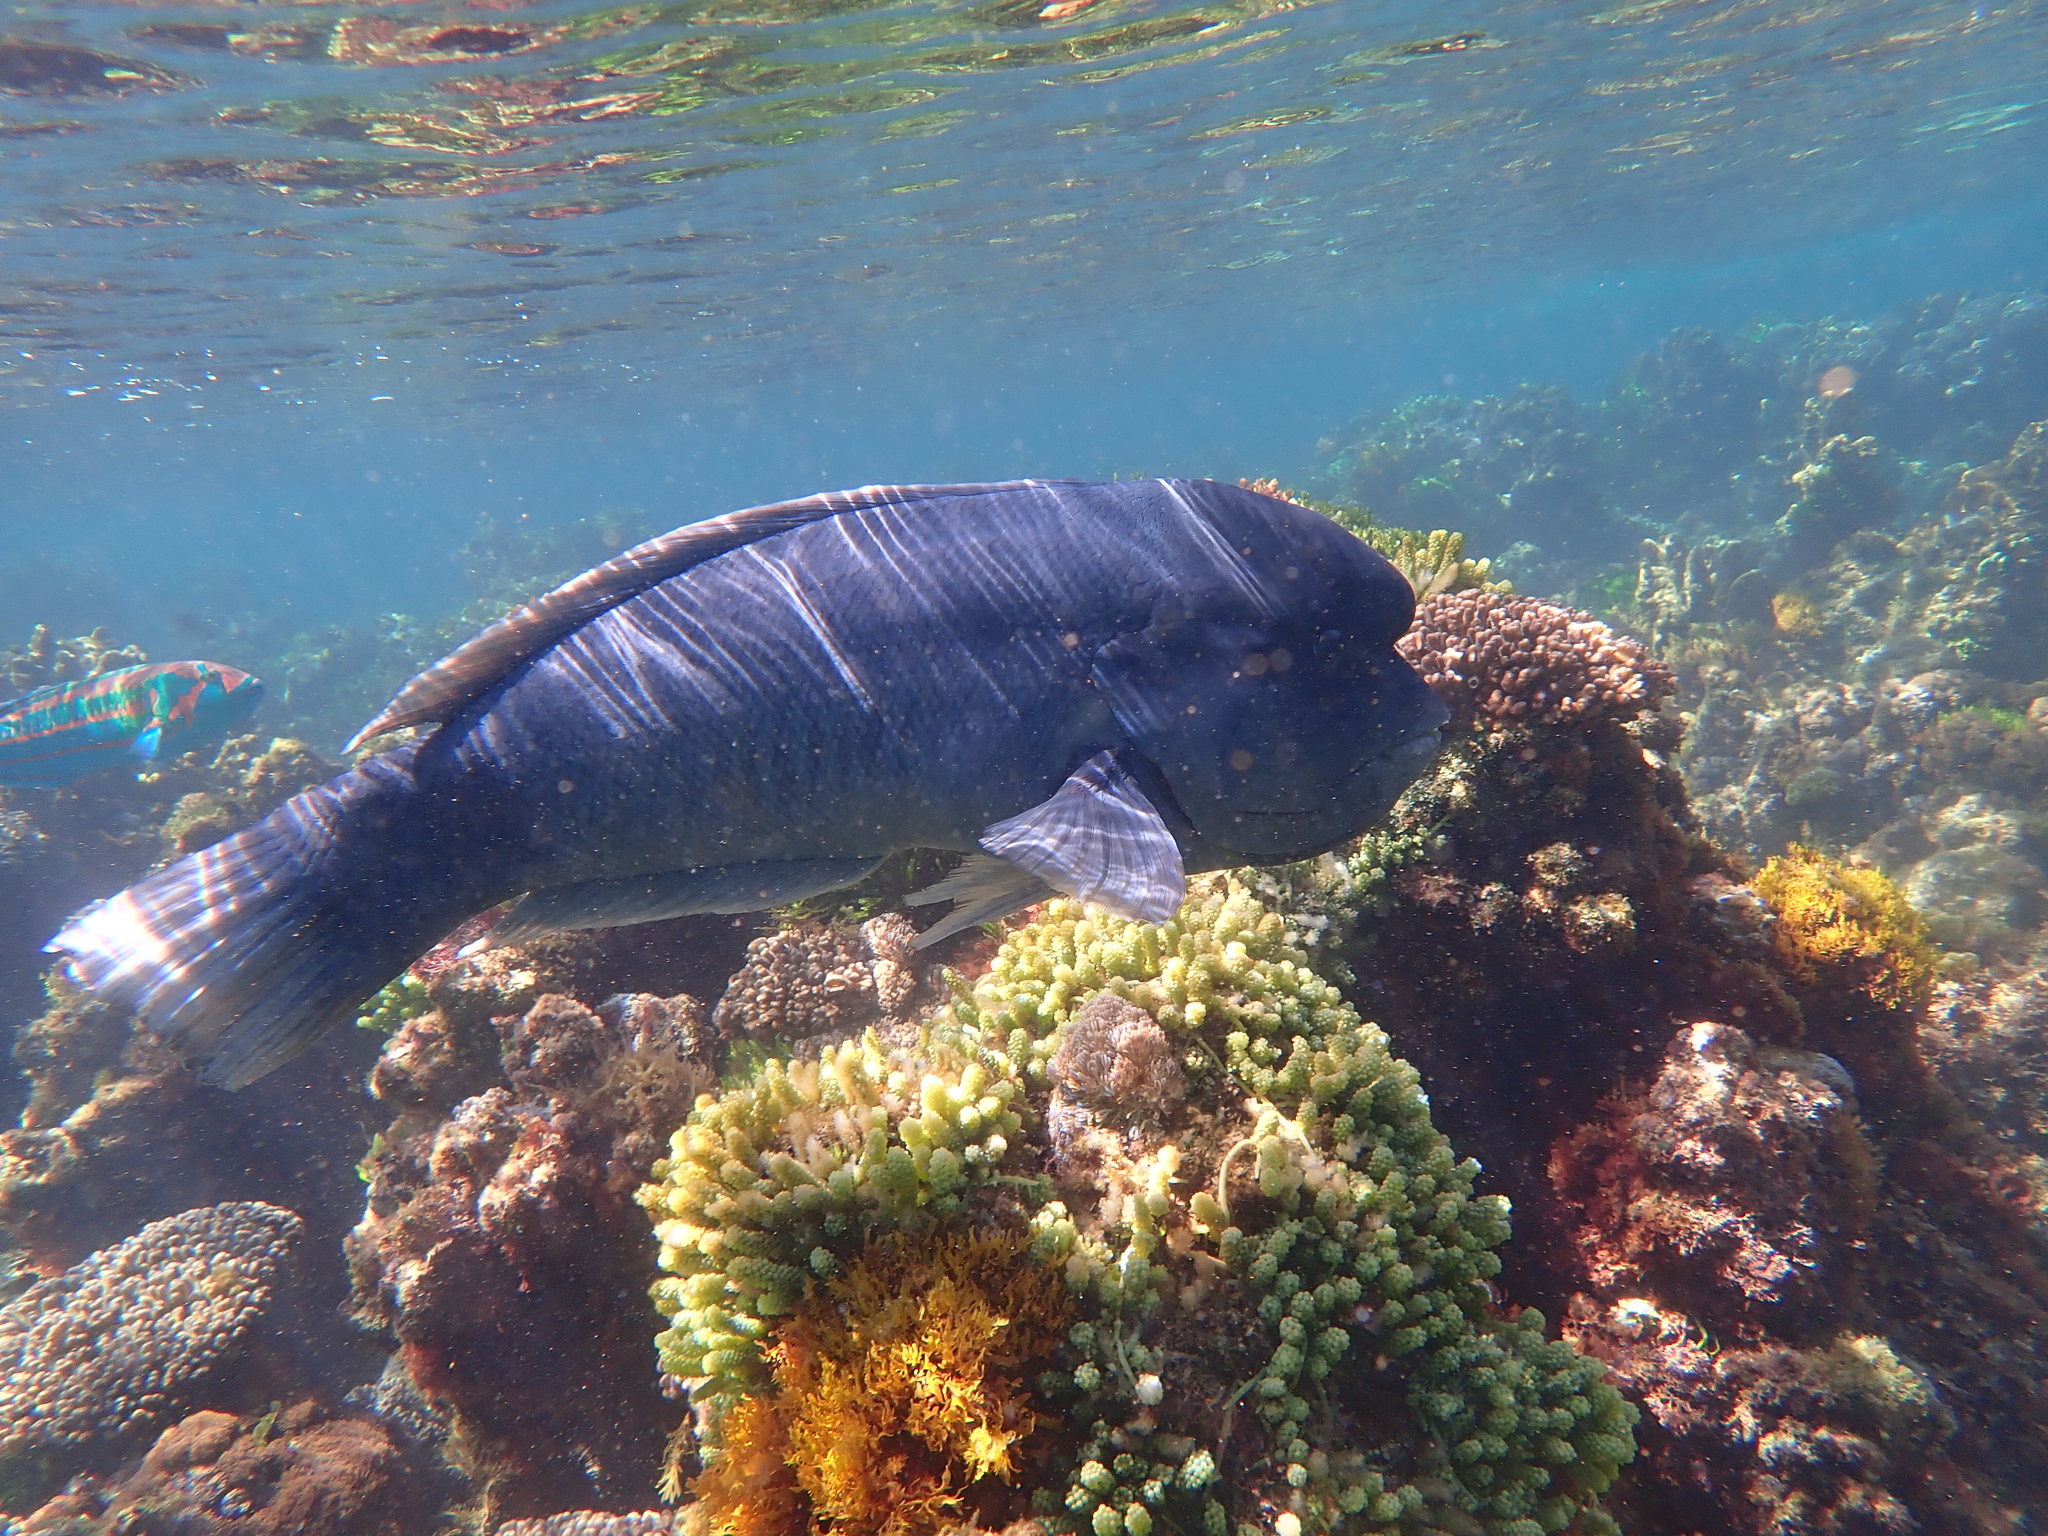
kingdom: Animalia
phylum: Chordata
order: Perciformes
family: Labridae
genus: Coris
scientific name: Coris bulbifrons
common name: Doubleheader
